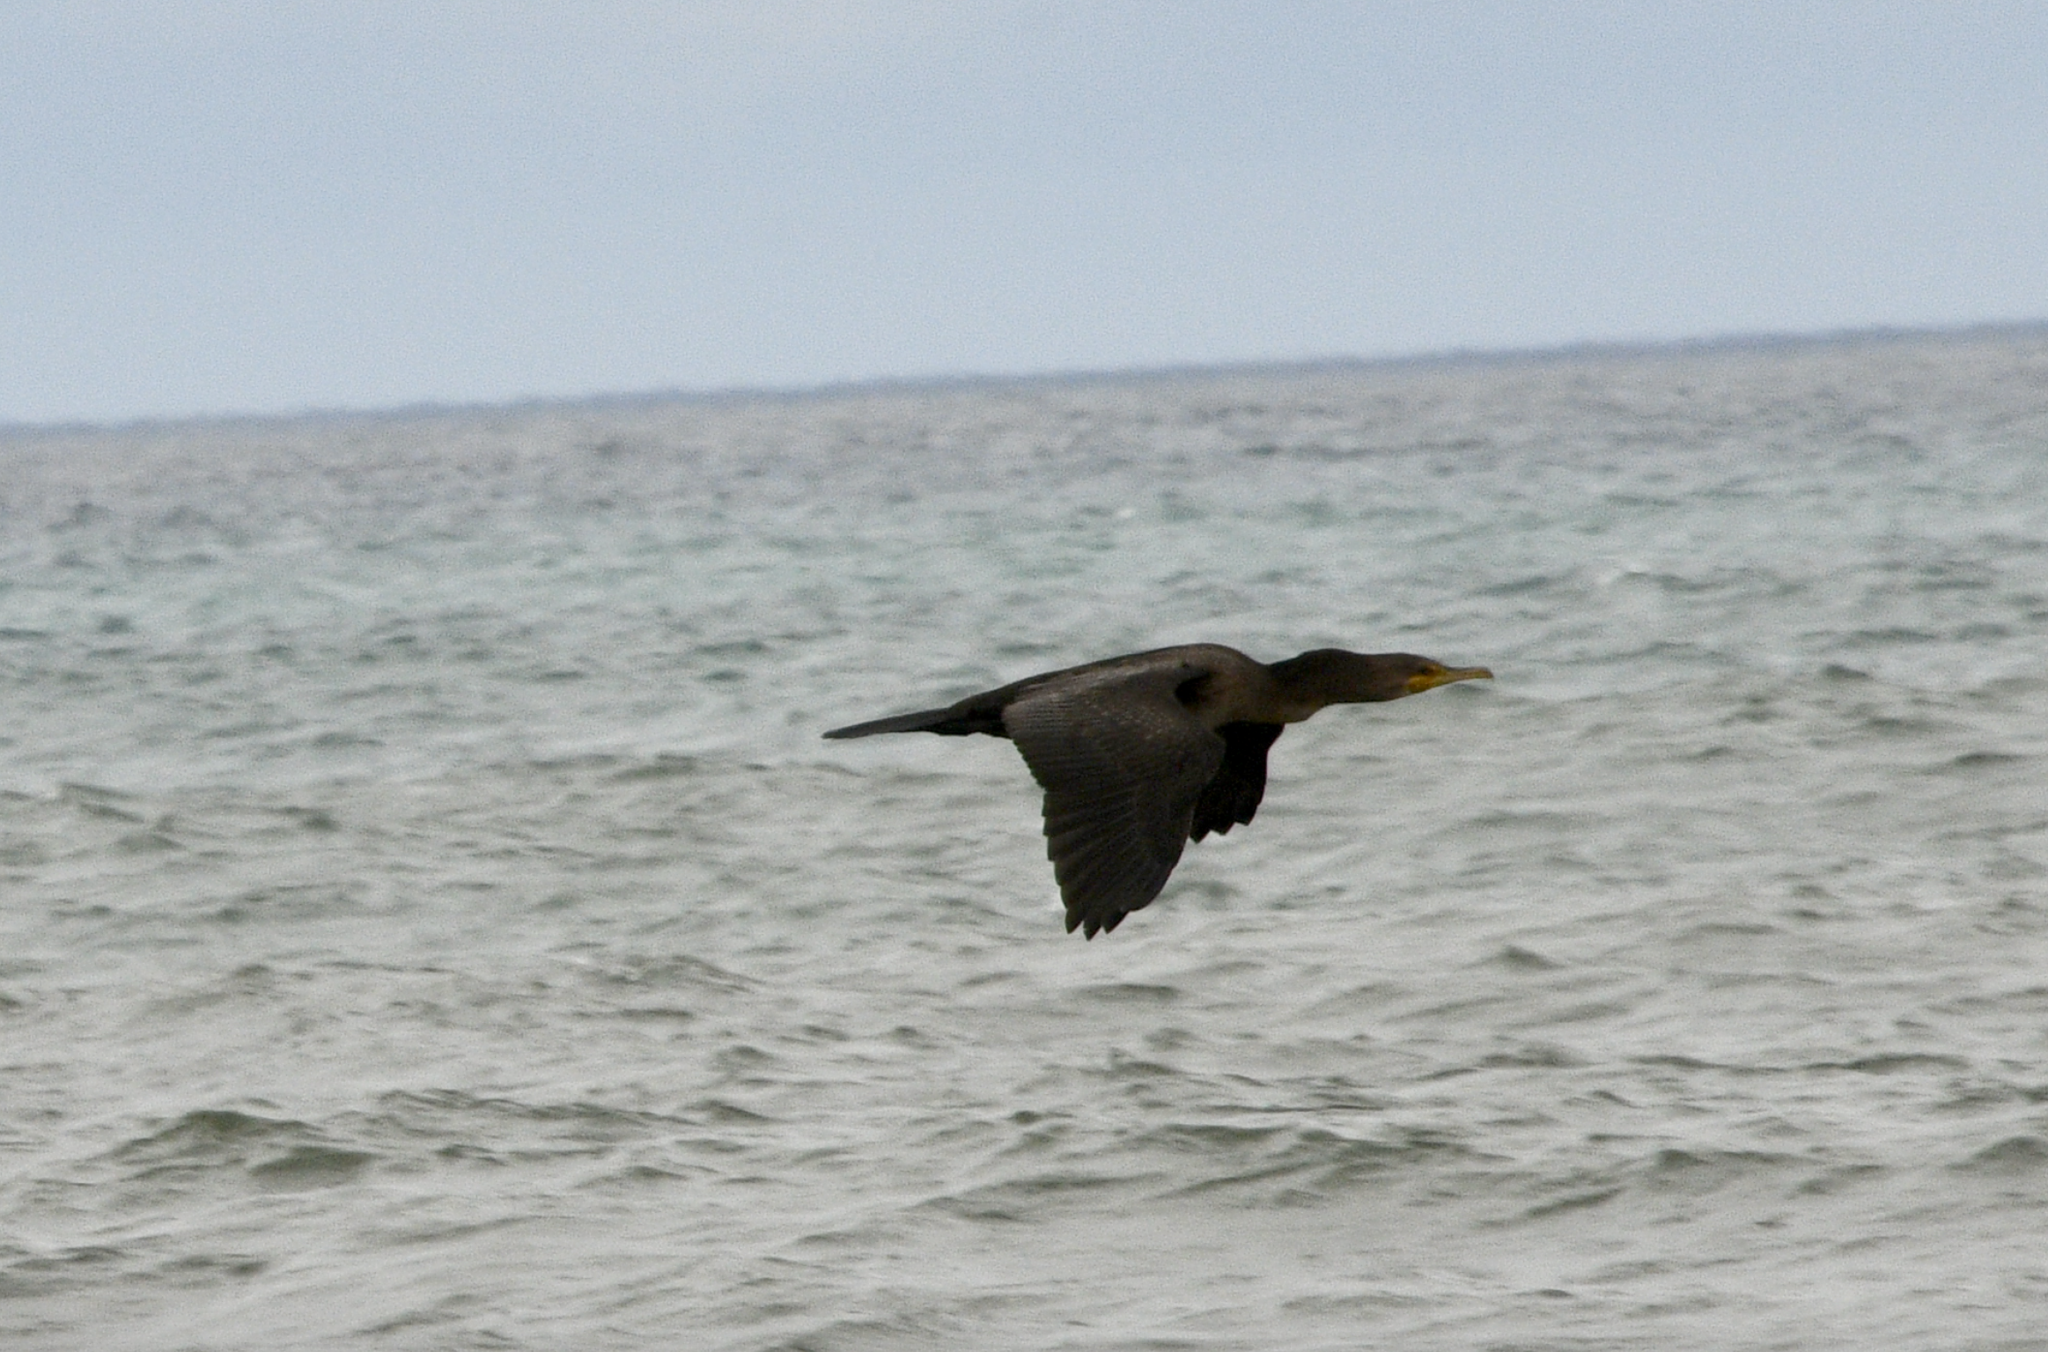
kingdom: Animalia
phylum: Chordata
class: Aves
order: Suliformes
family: Phalacrocoracidae
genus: Phalacrocorax
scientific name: Phalacrocorax auritus
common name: Double-crested cormorant
